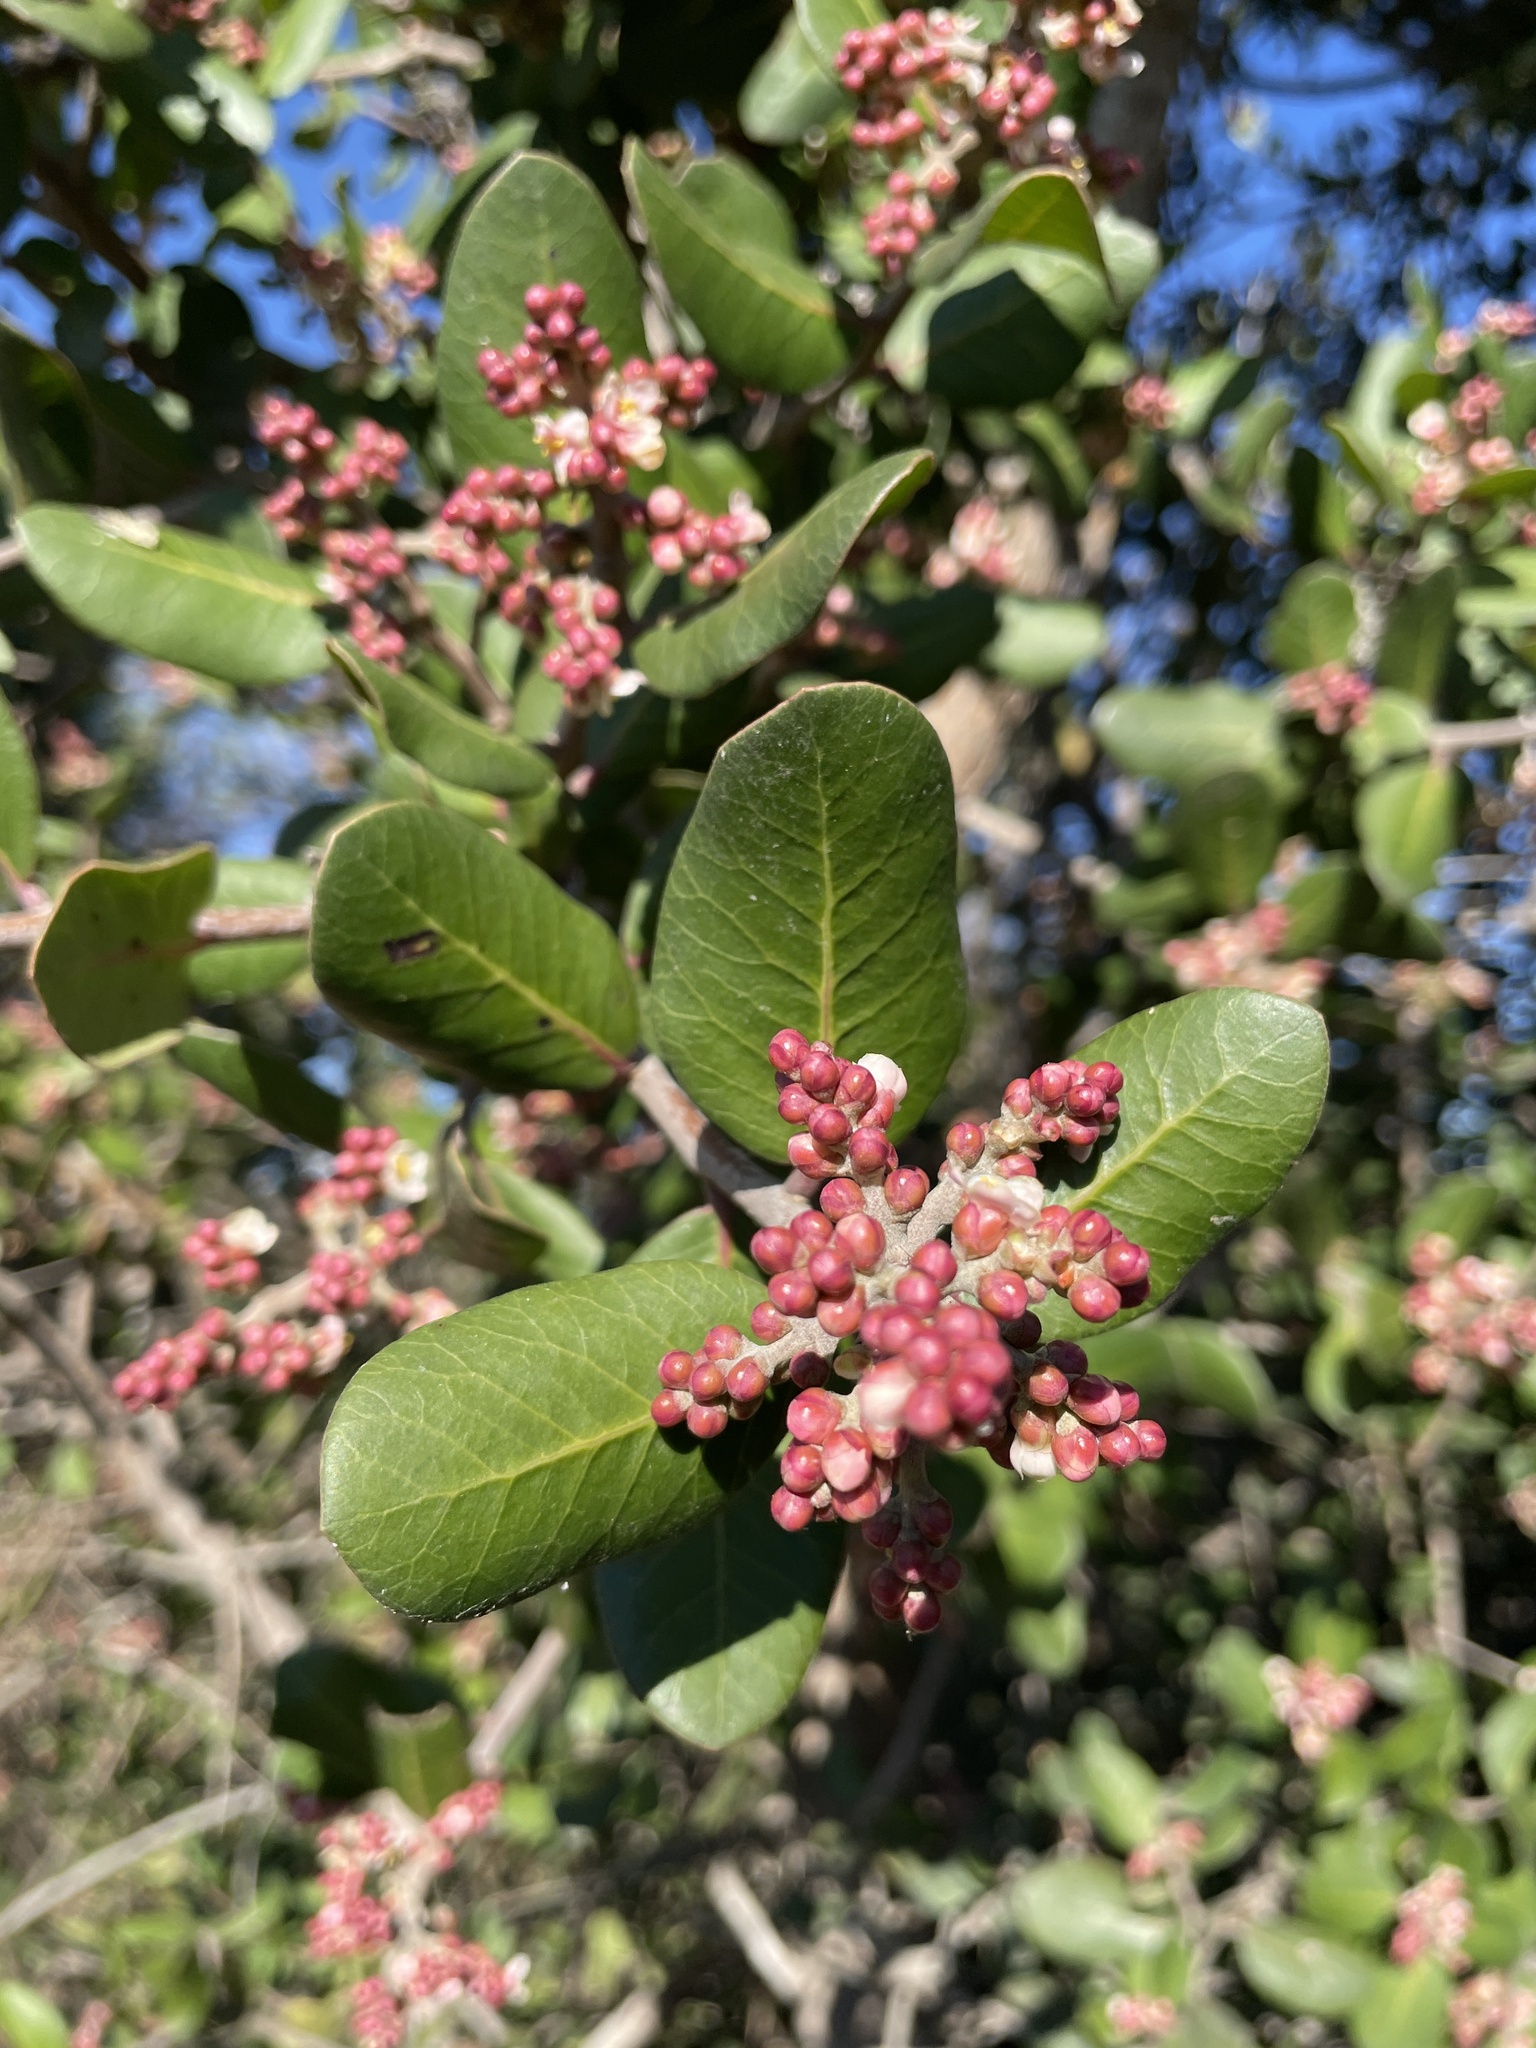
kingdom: Plantae
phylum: Tracheophyta
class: Magnoliopsida
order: Sapindales
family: Anacardiaceae
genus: Rhus
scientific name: Rhus integrifolia
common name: Lemonade sumac
